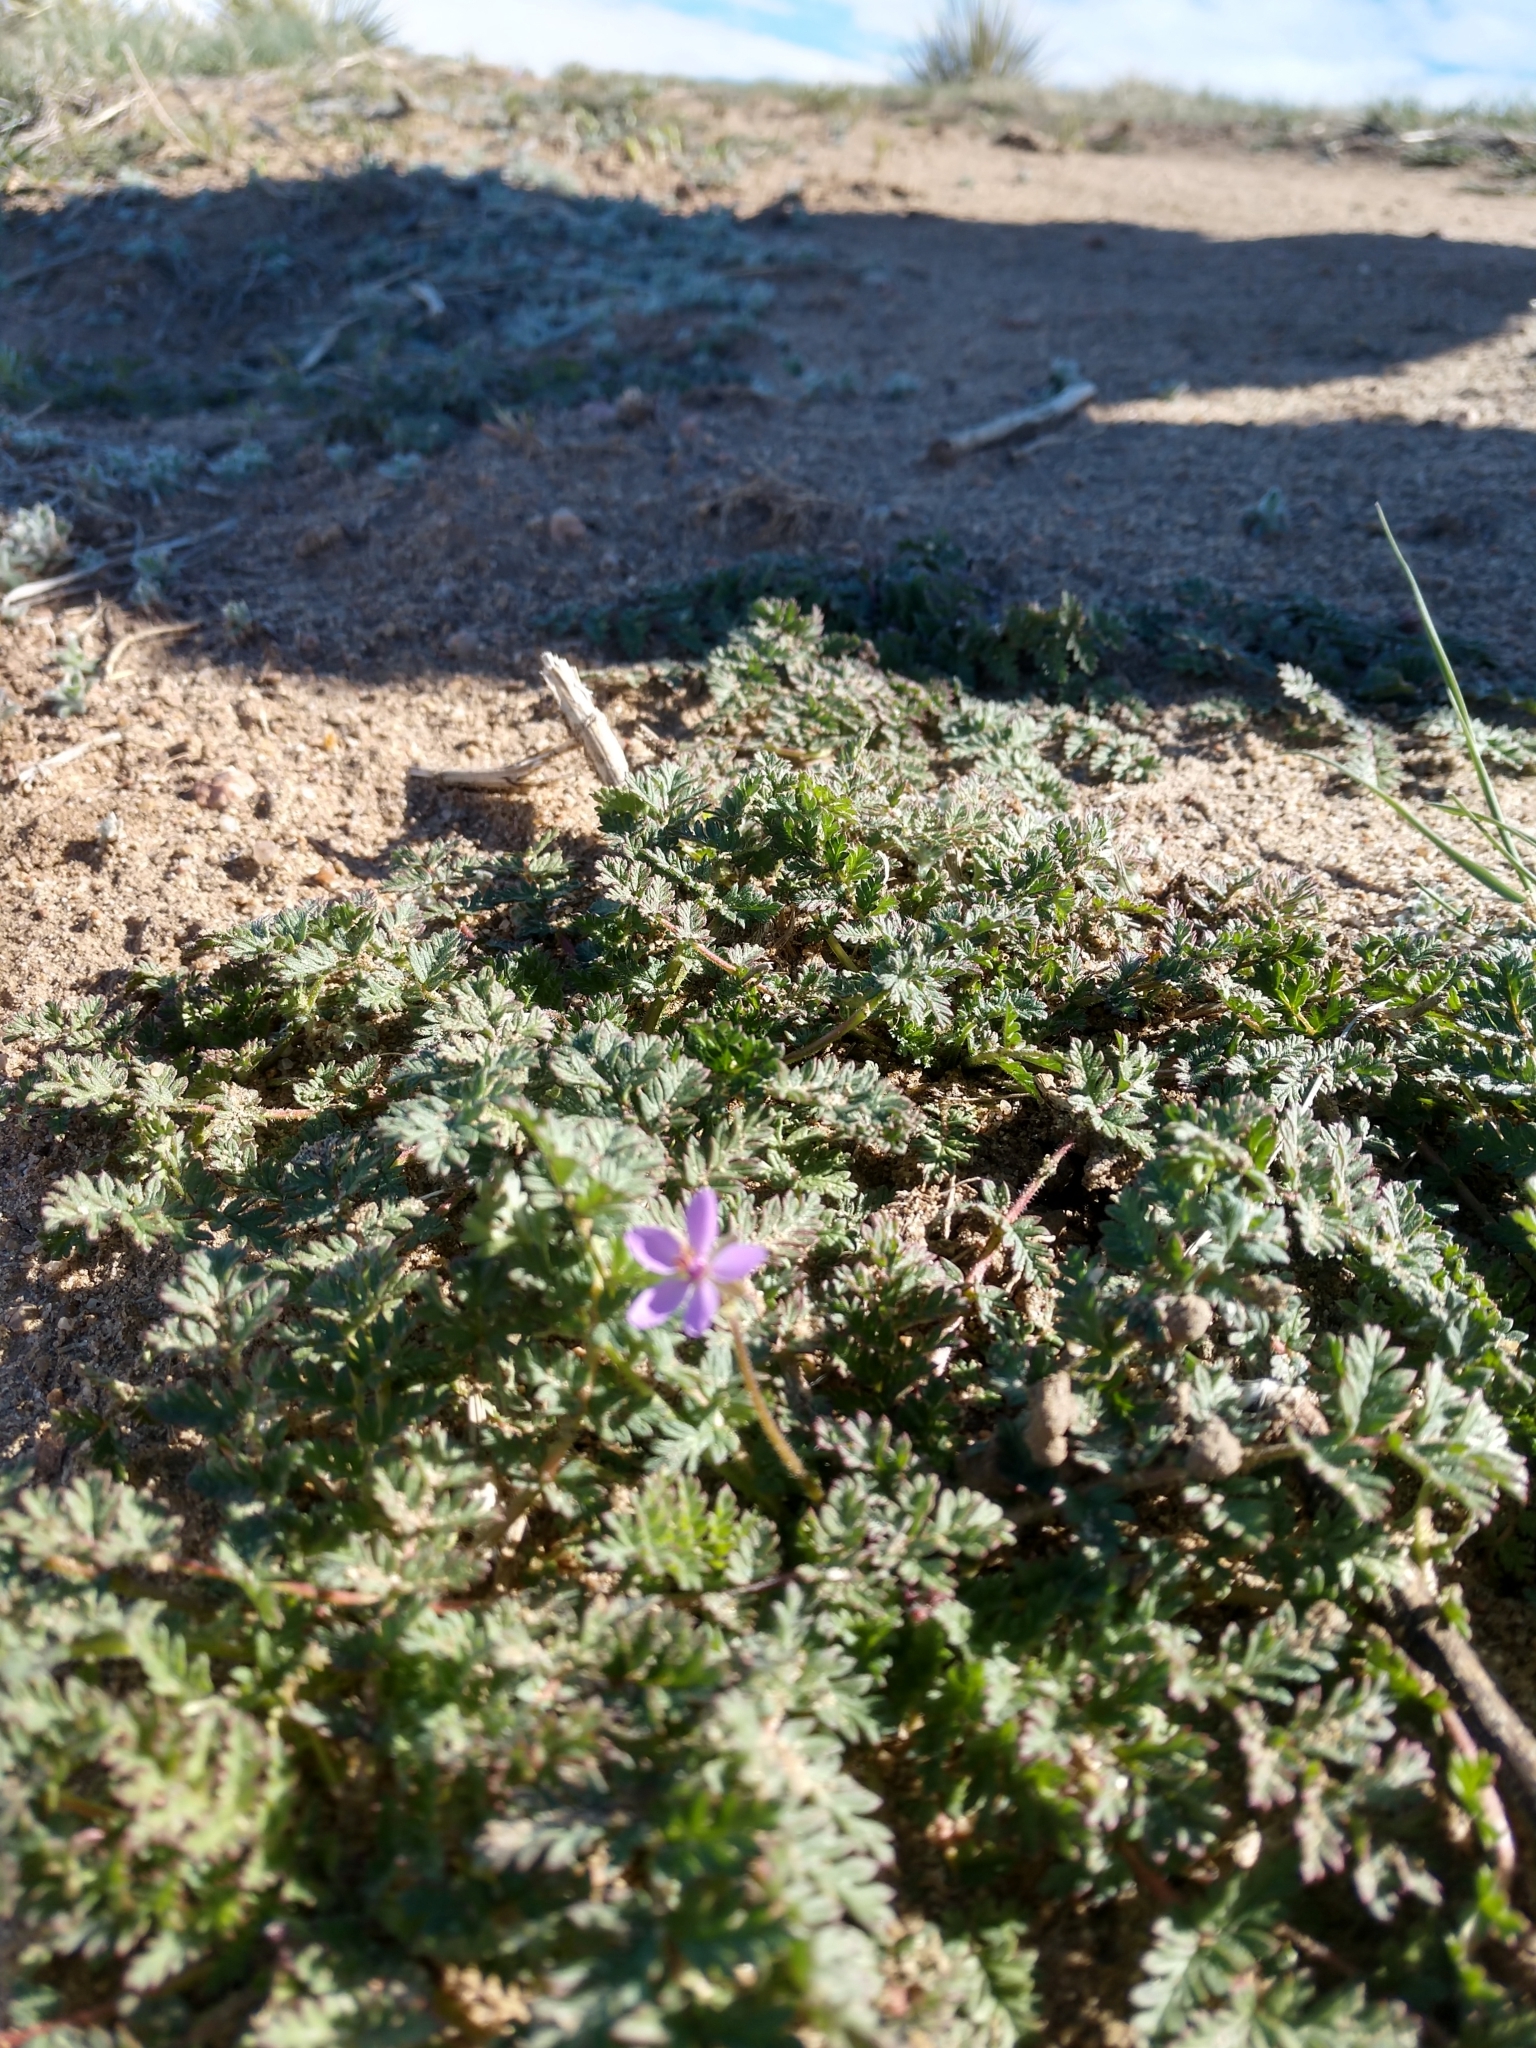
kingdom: Plantae
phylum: Tracheophyta
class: Magnoliopsida
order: Geraniales
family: Geraniaceae
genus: Erodium
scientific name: Erodium cicutarium
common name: Common stork's-bill
